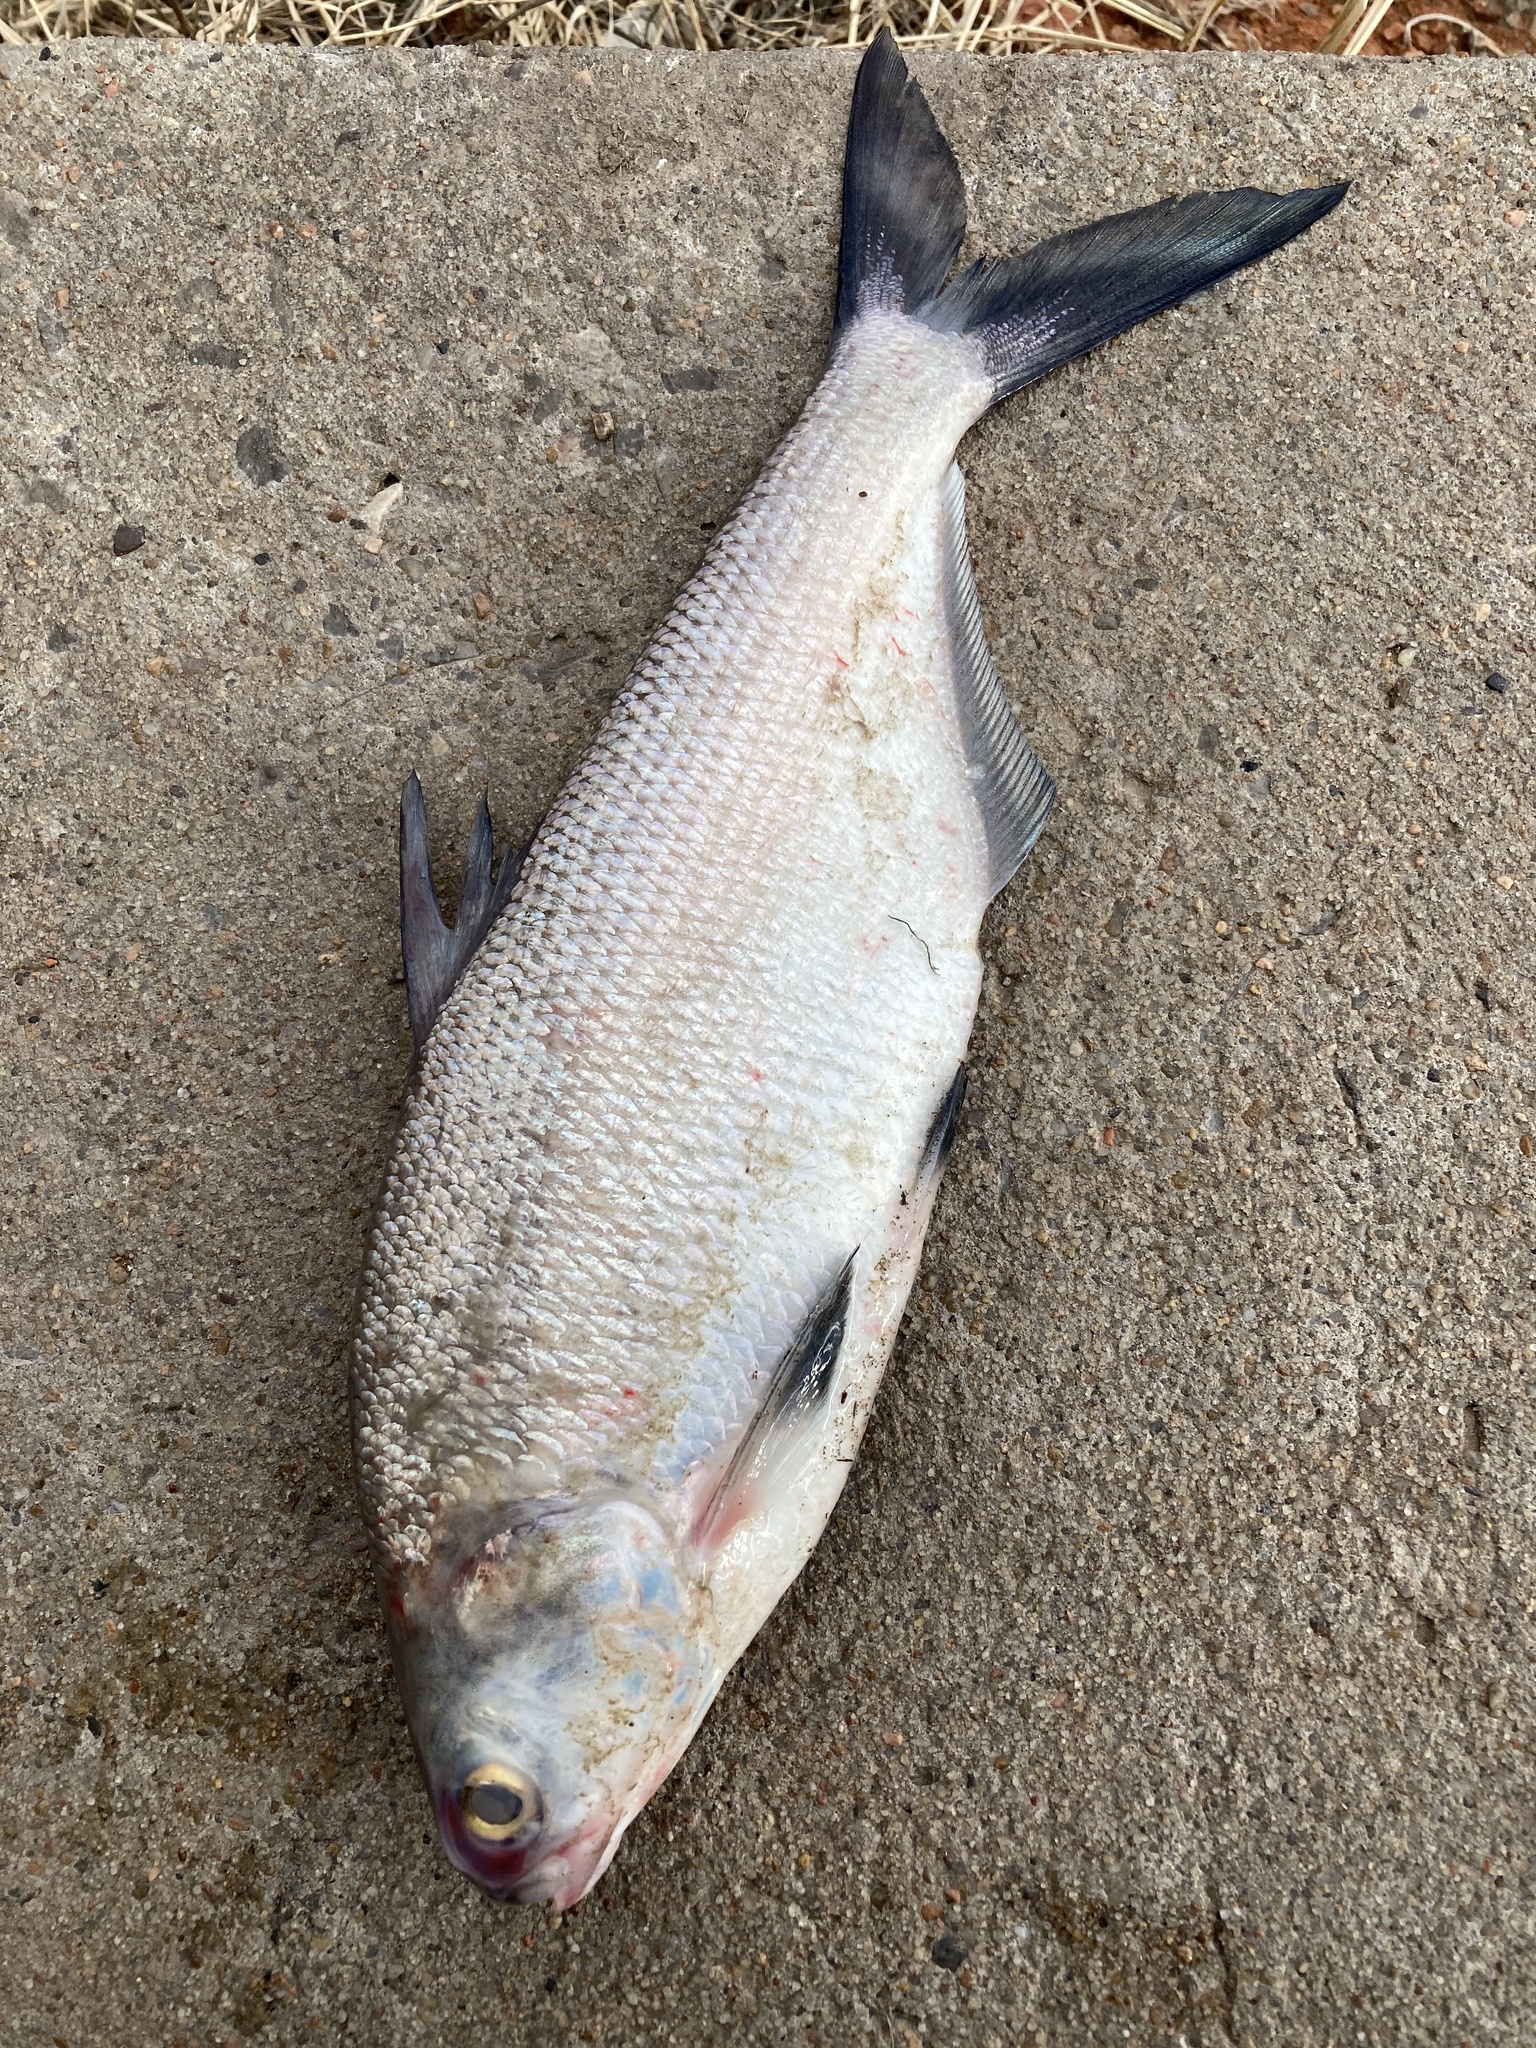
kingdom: Animalia
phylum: Chordata
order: Clupeiformes
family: Clupeidae
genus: Dorosoma
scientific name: Dorosoma cepedianum
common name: Gizzard shad
